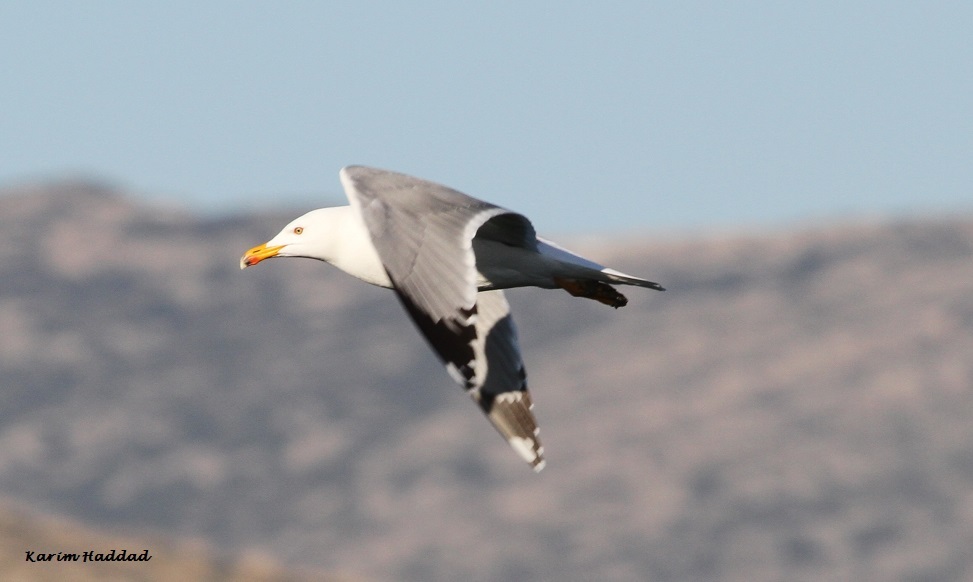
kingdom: Animalia
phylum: Chordata
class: Aves
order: Charadriiformes
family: Laridae
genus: Larus
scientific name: Larus michahellis
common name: Yellow-legged gull
